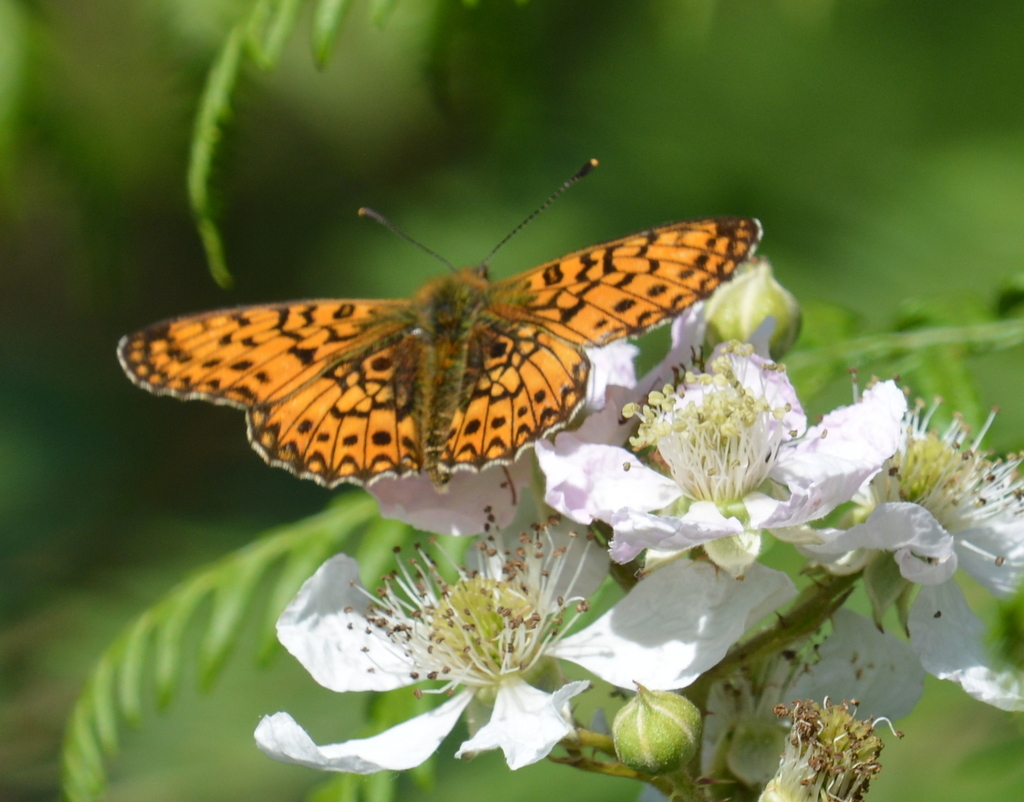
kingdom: Animalia
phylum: Arthropoda
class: Insecta
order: Lepidoptera
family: Nymphalidae
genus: Boloria
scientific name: Boloria selene
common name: Small pearl-bordered fritillary
